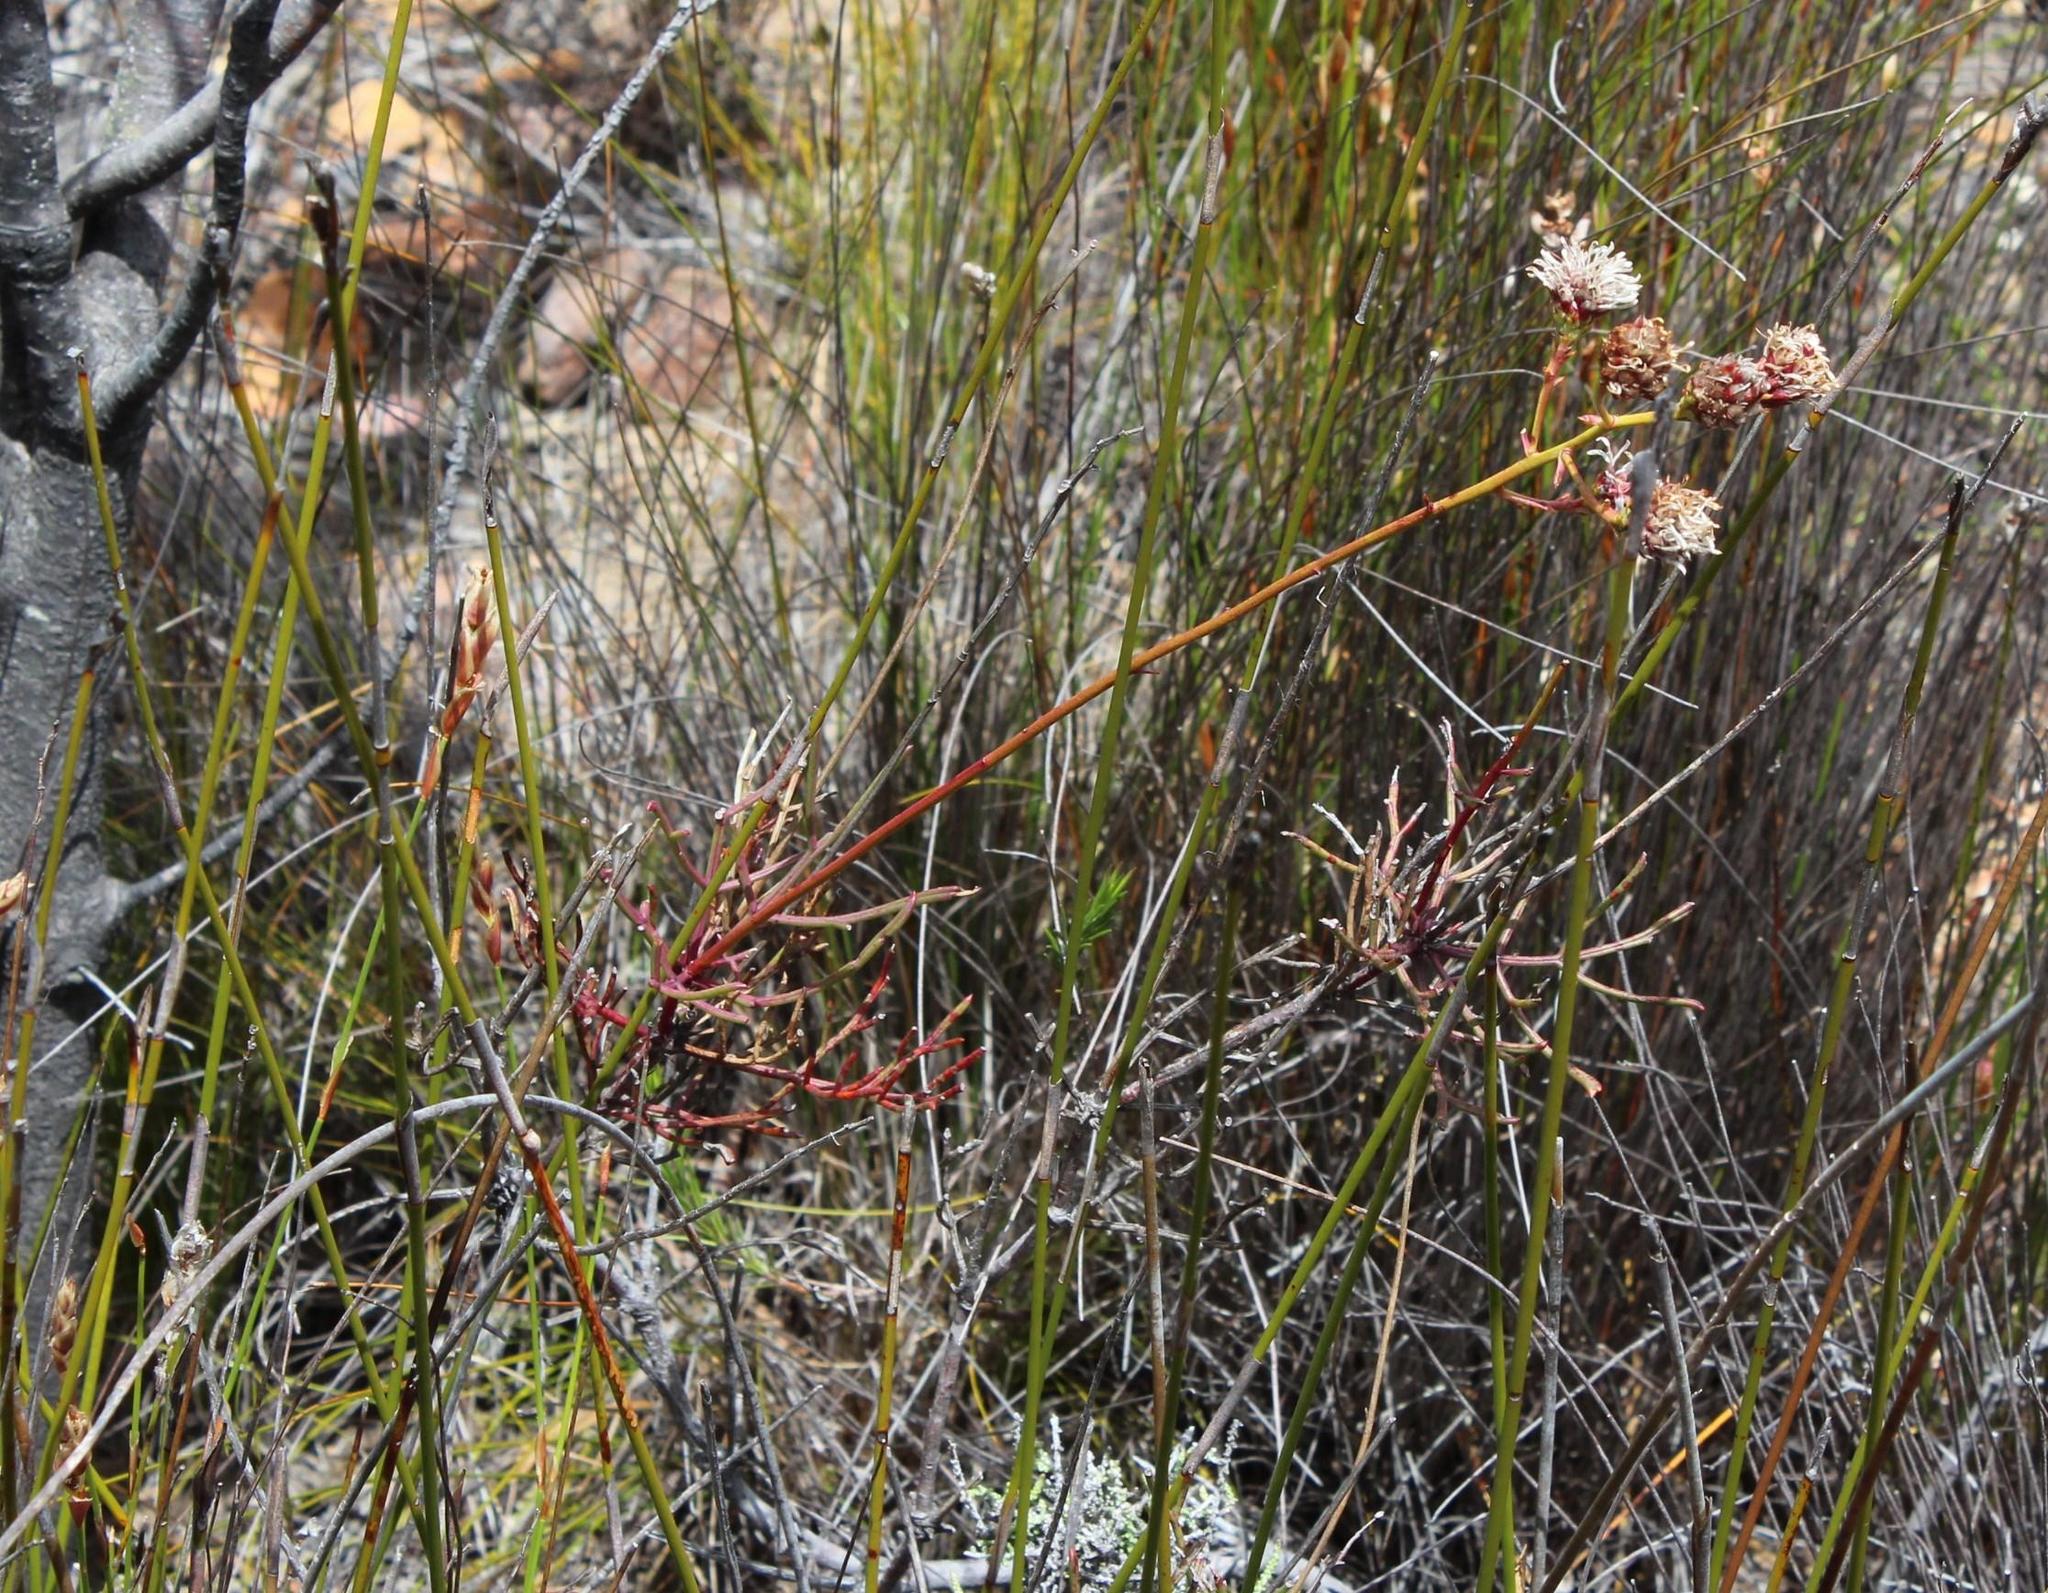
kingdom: Plantae
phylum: Tracheophyta
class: Magnoliopsida
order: Proteales
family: Proteaceae
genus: Serruria
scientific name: Serruria williamsii
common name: King spiderhead
